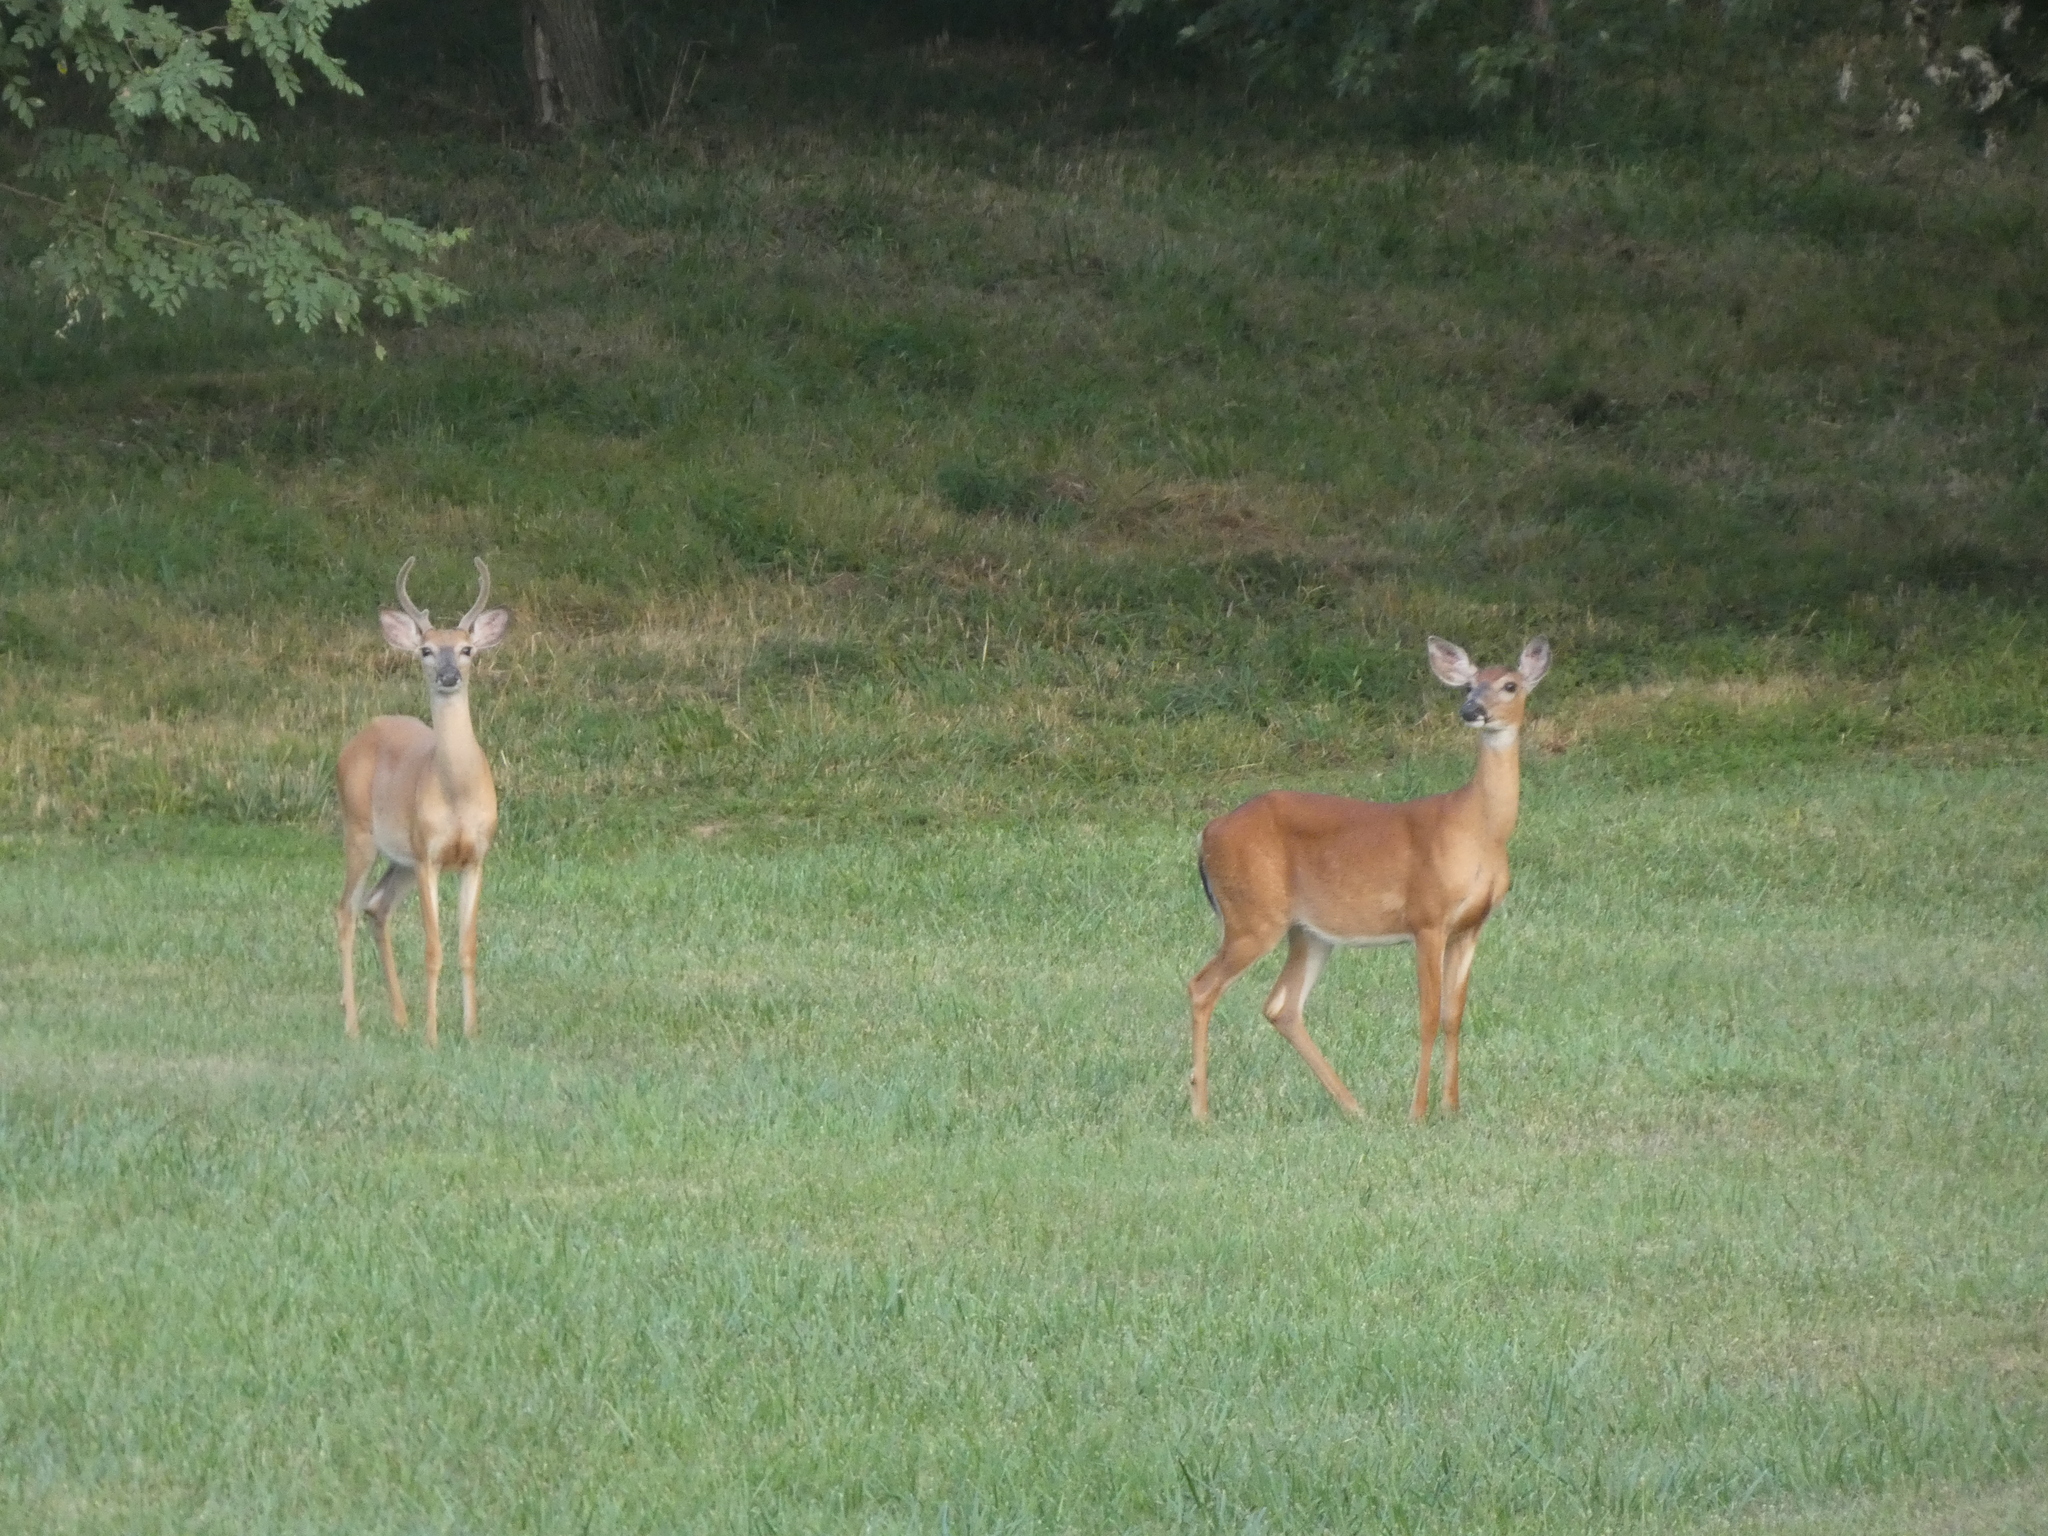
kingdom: Animalia
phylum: Chordata
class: Mammalia
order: Artiodactyla
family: Cervidae
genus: Odocoileus
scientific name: Odocoileus virginianus
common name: White-tailed deer
